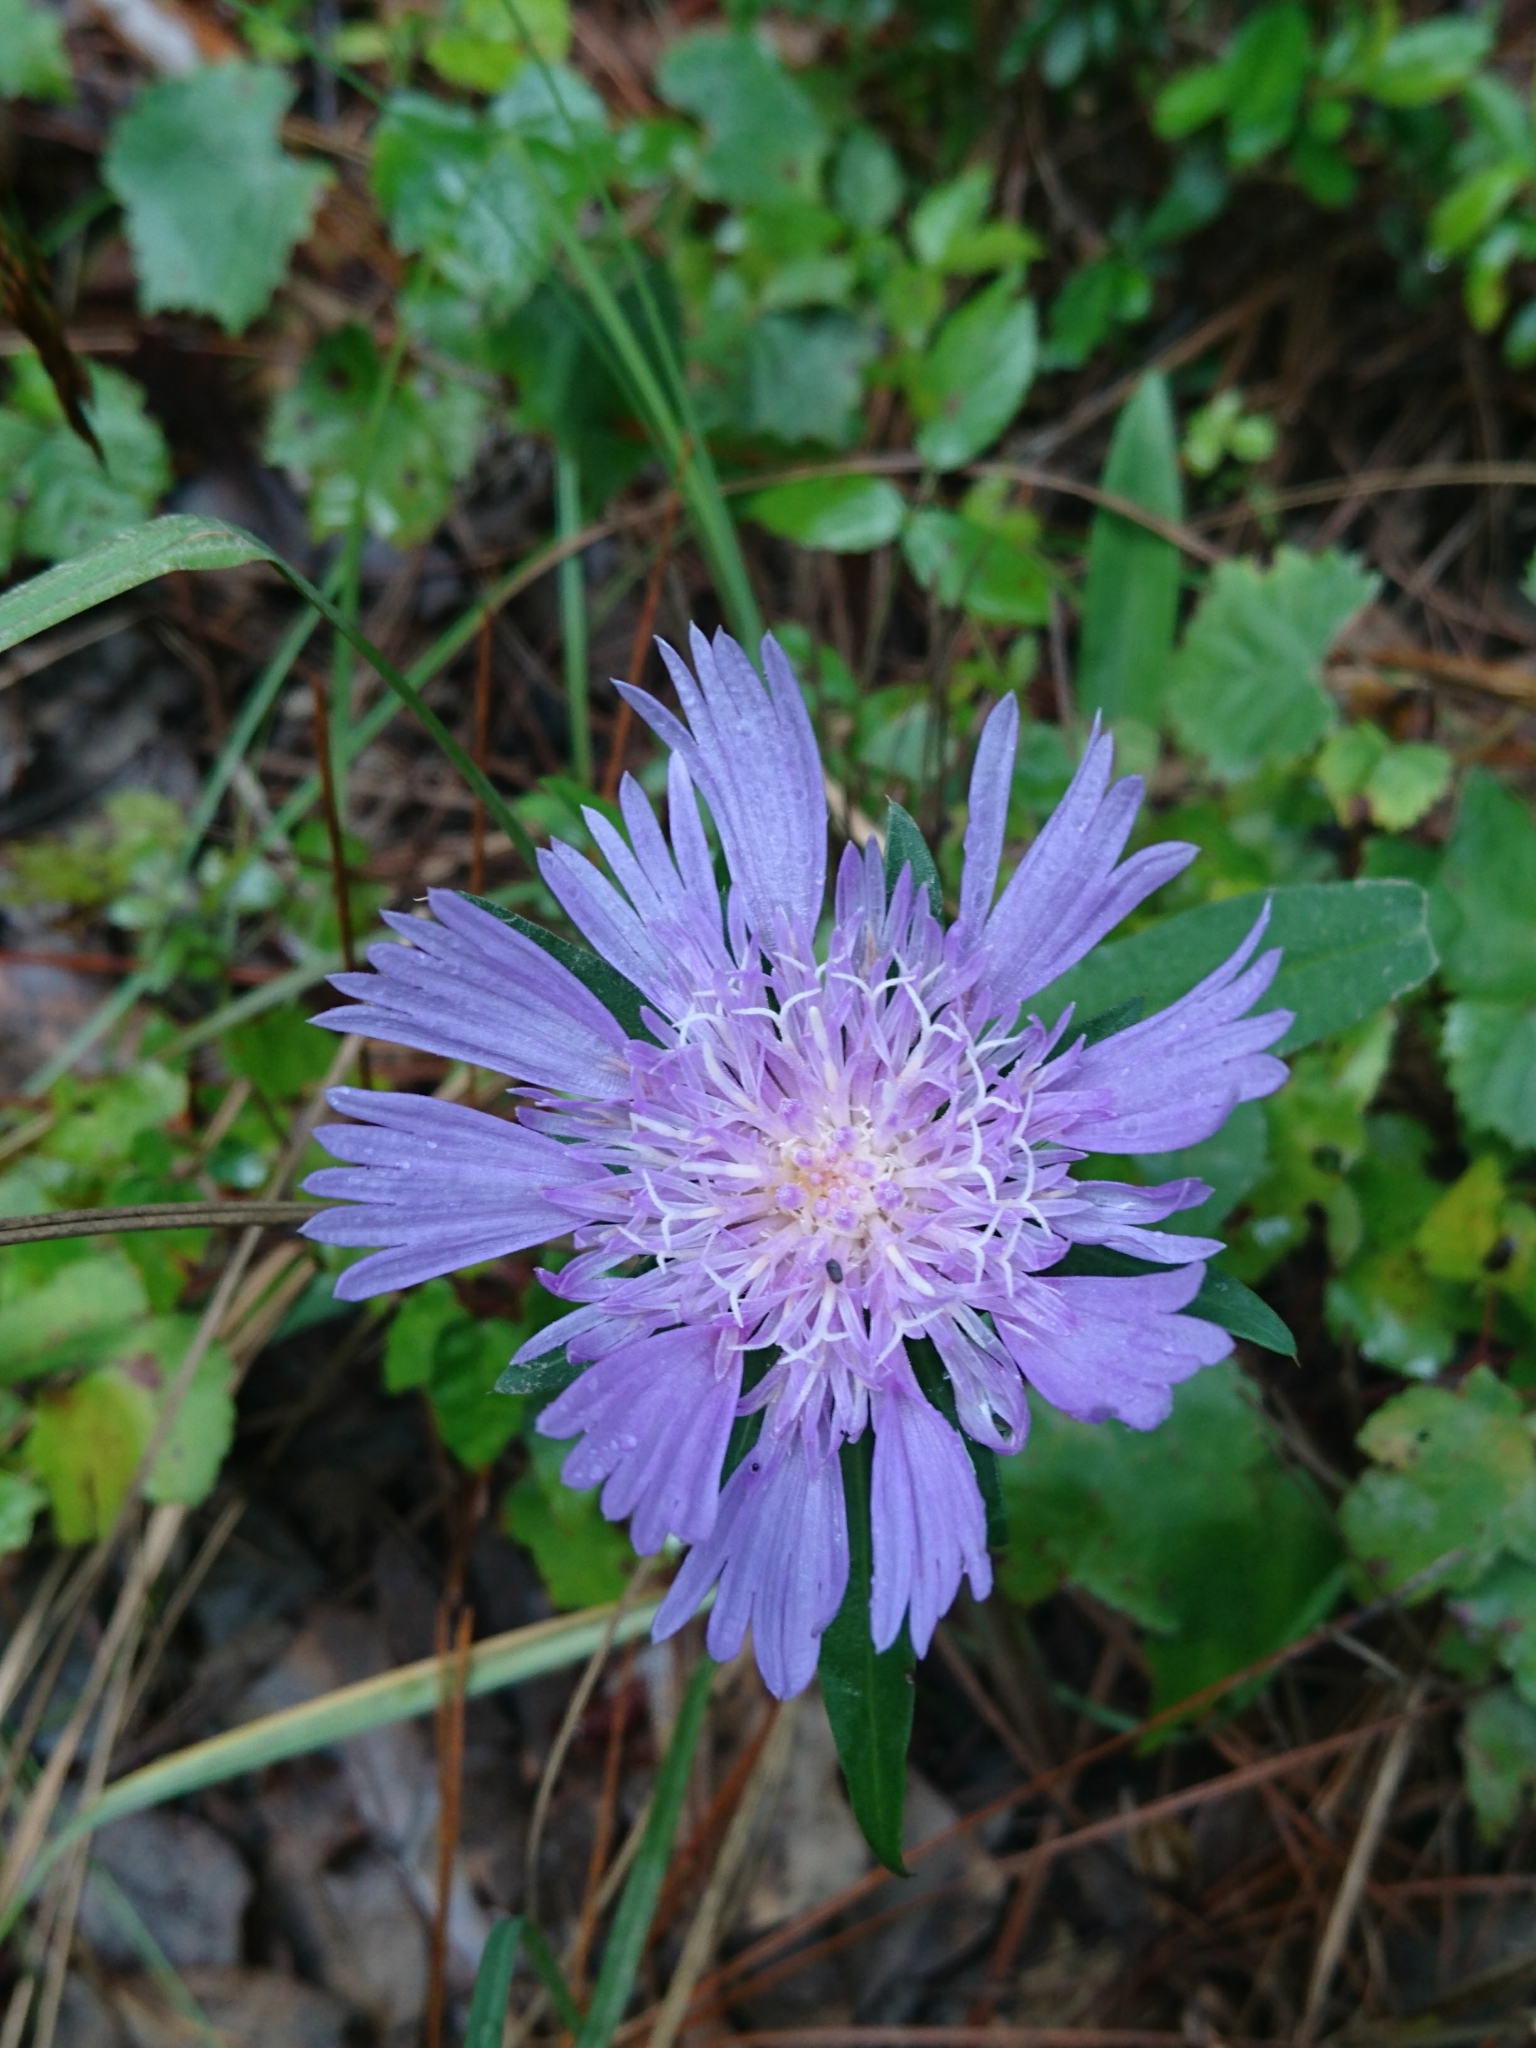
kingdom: Plantae
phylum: Tracheophyta
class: Magnoliopsida
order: Asterales
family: Asteraceae
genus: Stokesia
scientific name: Stokesia laevis
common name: Stokes'-aster
